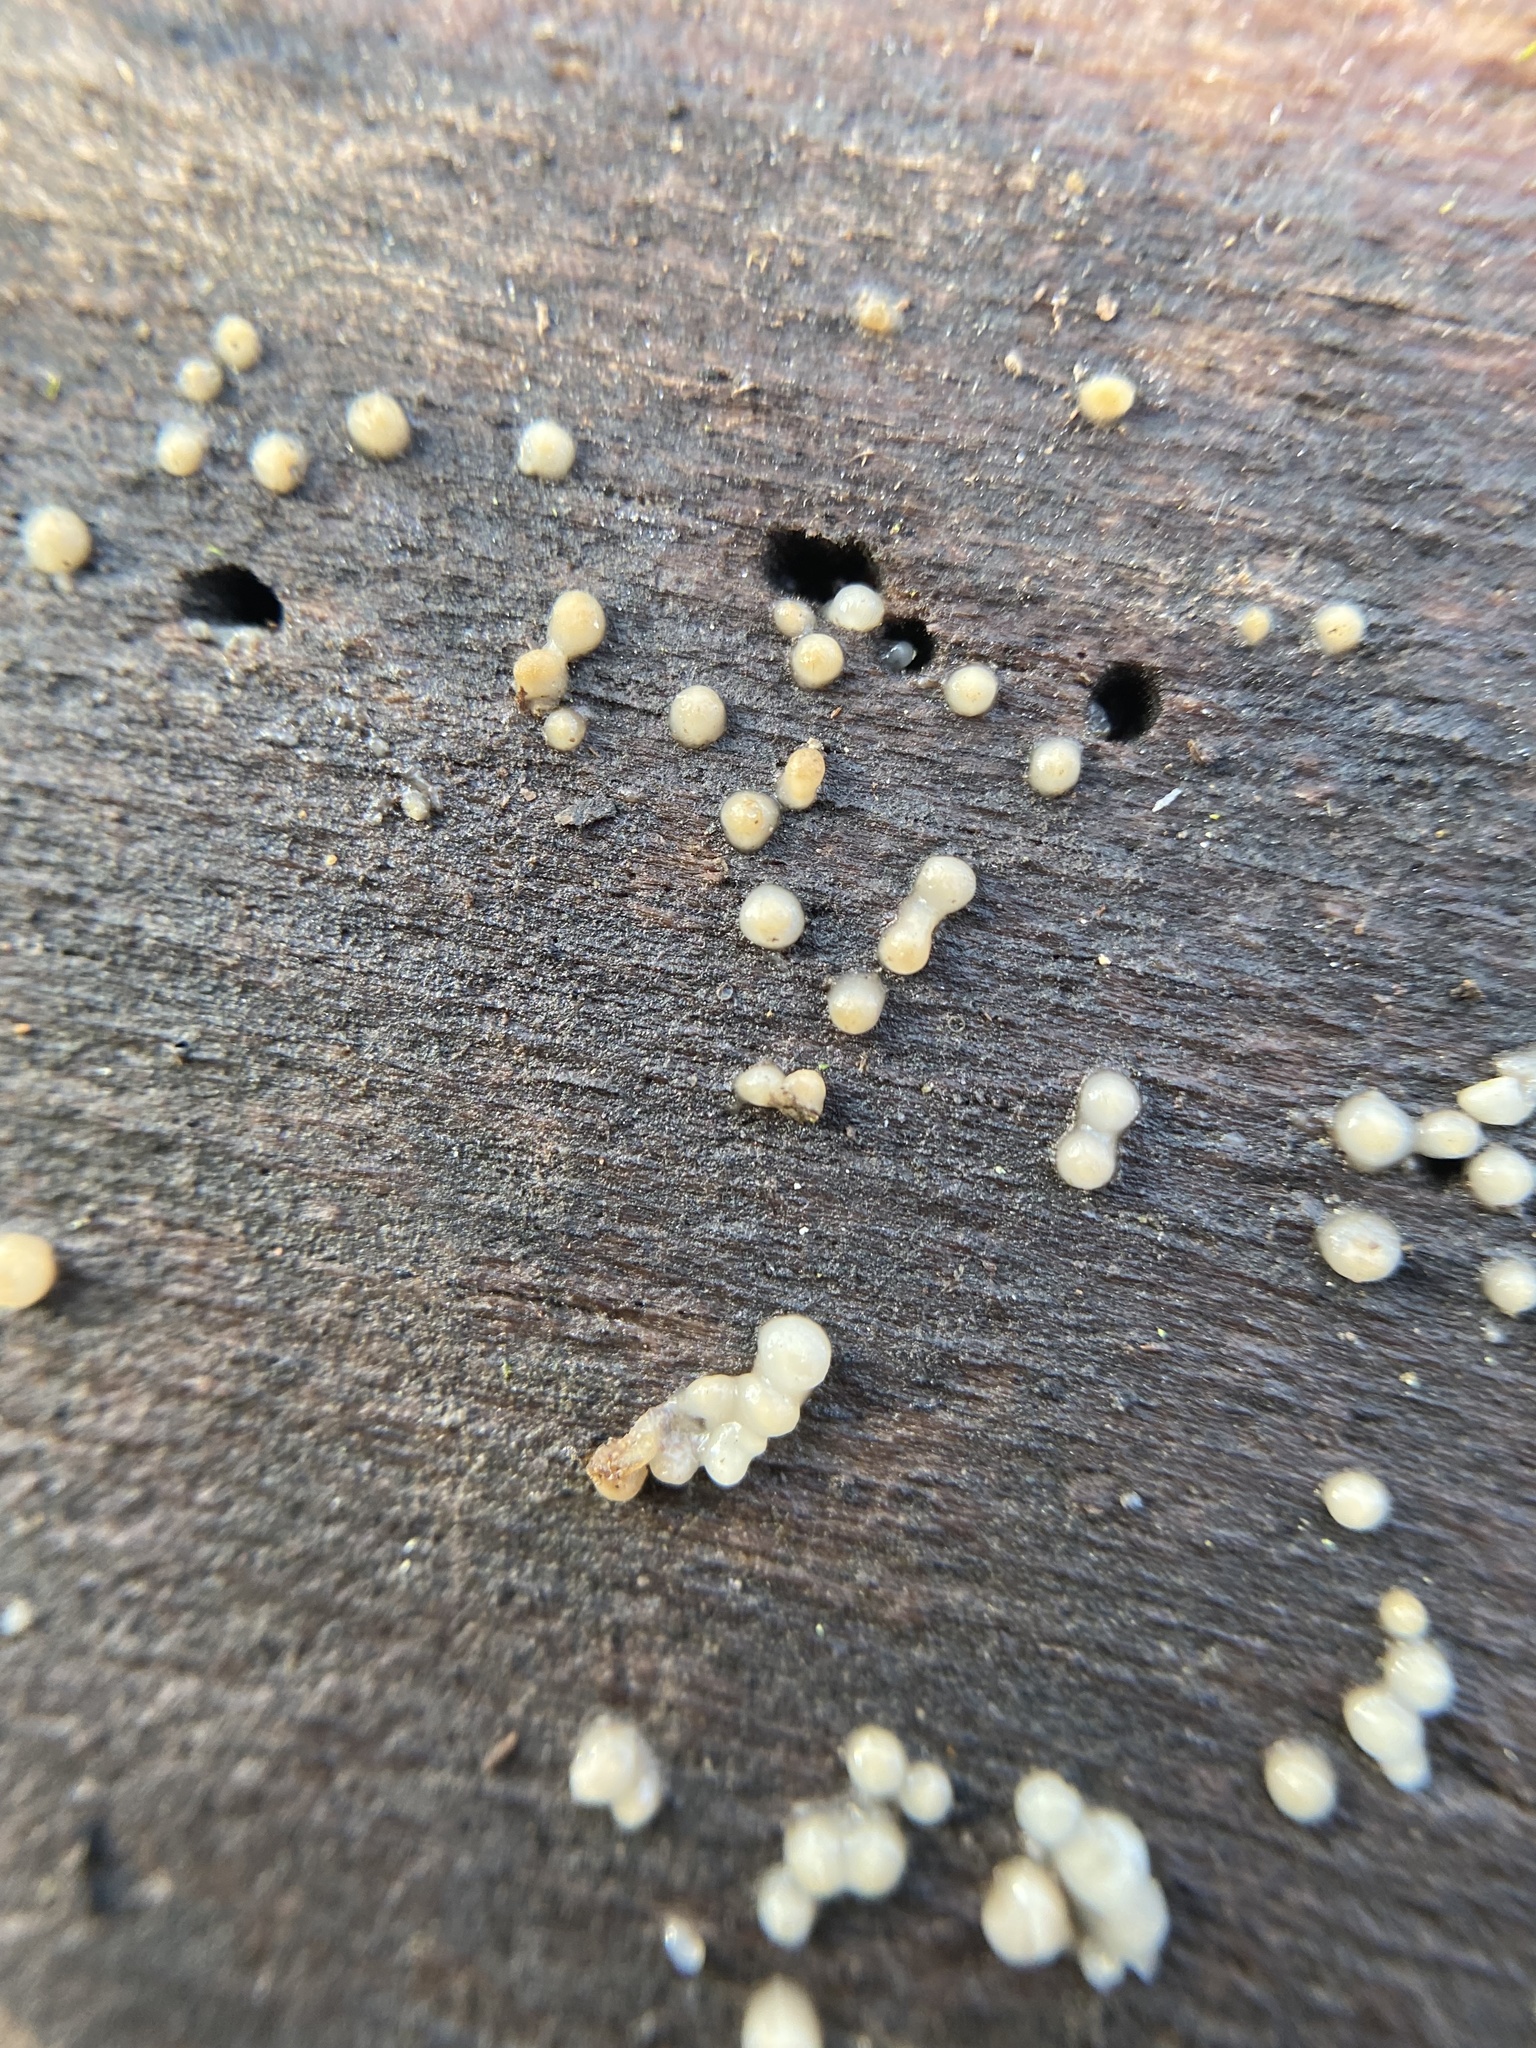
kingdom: Fungi
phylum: Basidiomycota
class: Atractiellomycetes
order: Atractiellales
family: Phleogenaceae
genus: Helicogloea
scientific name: Helicogloea compressa
